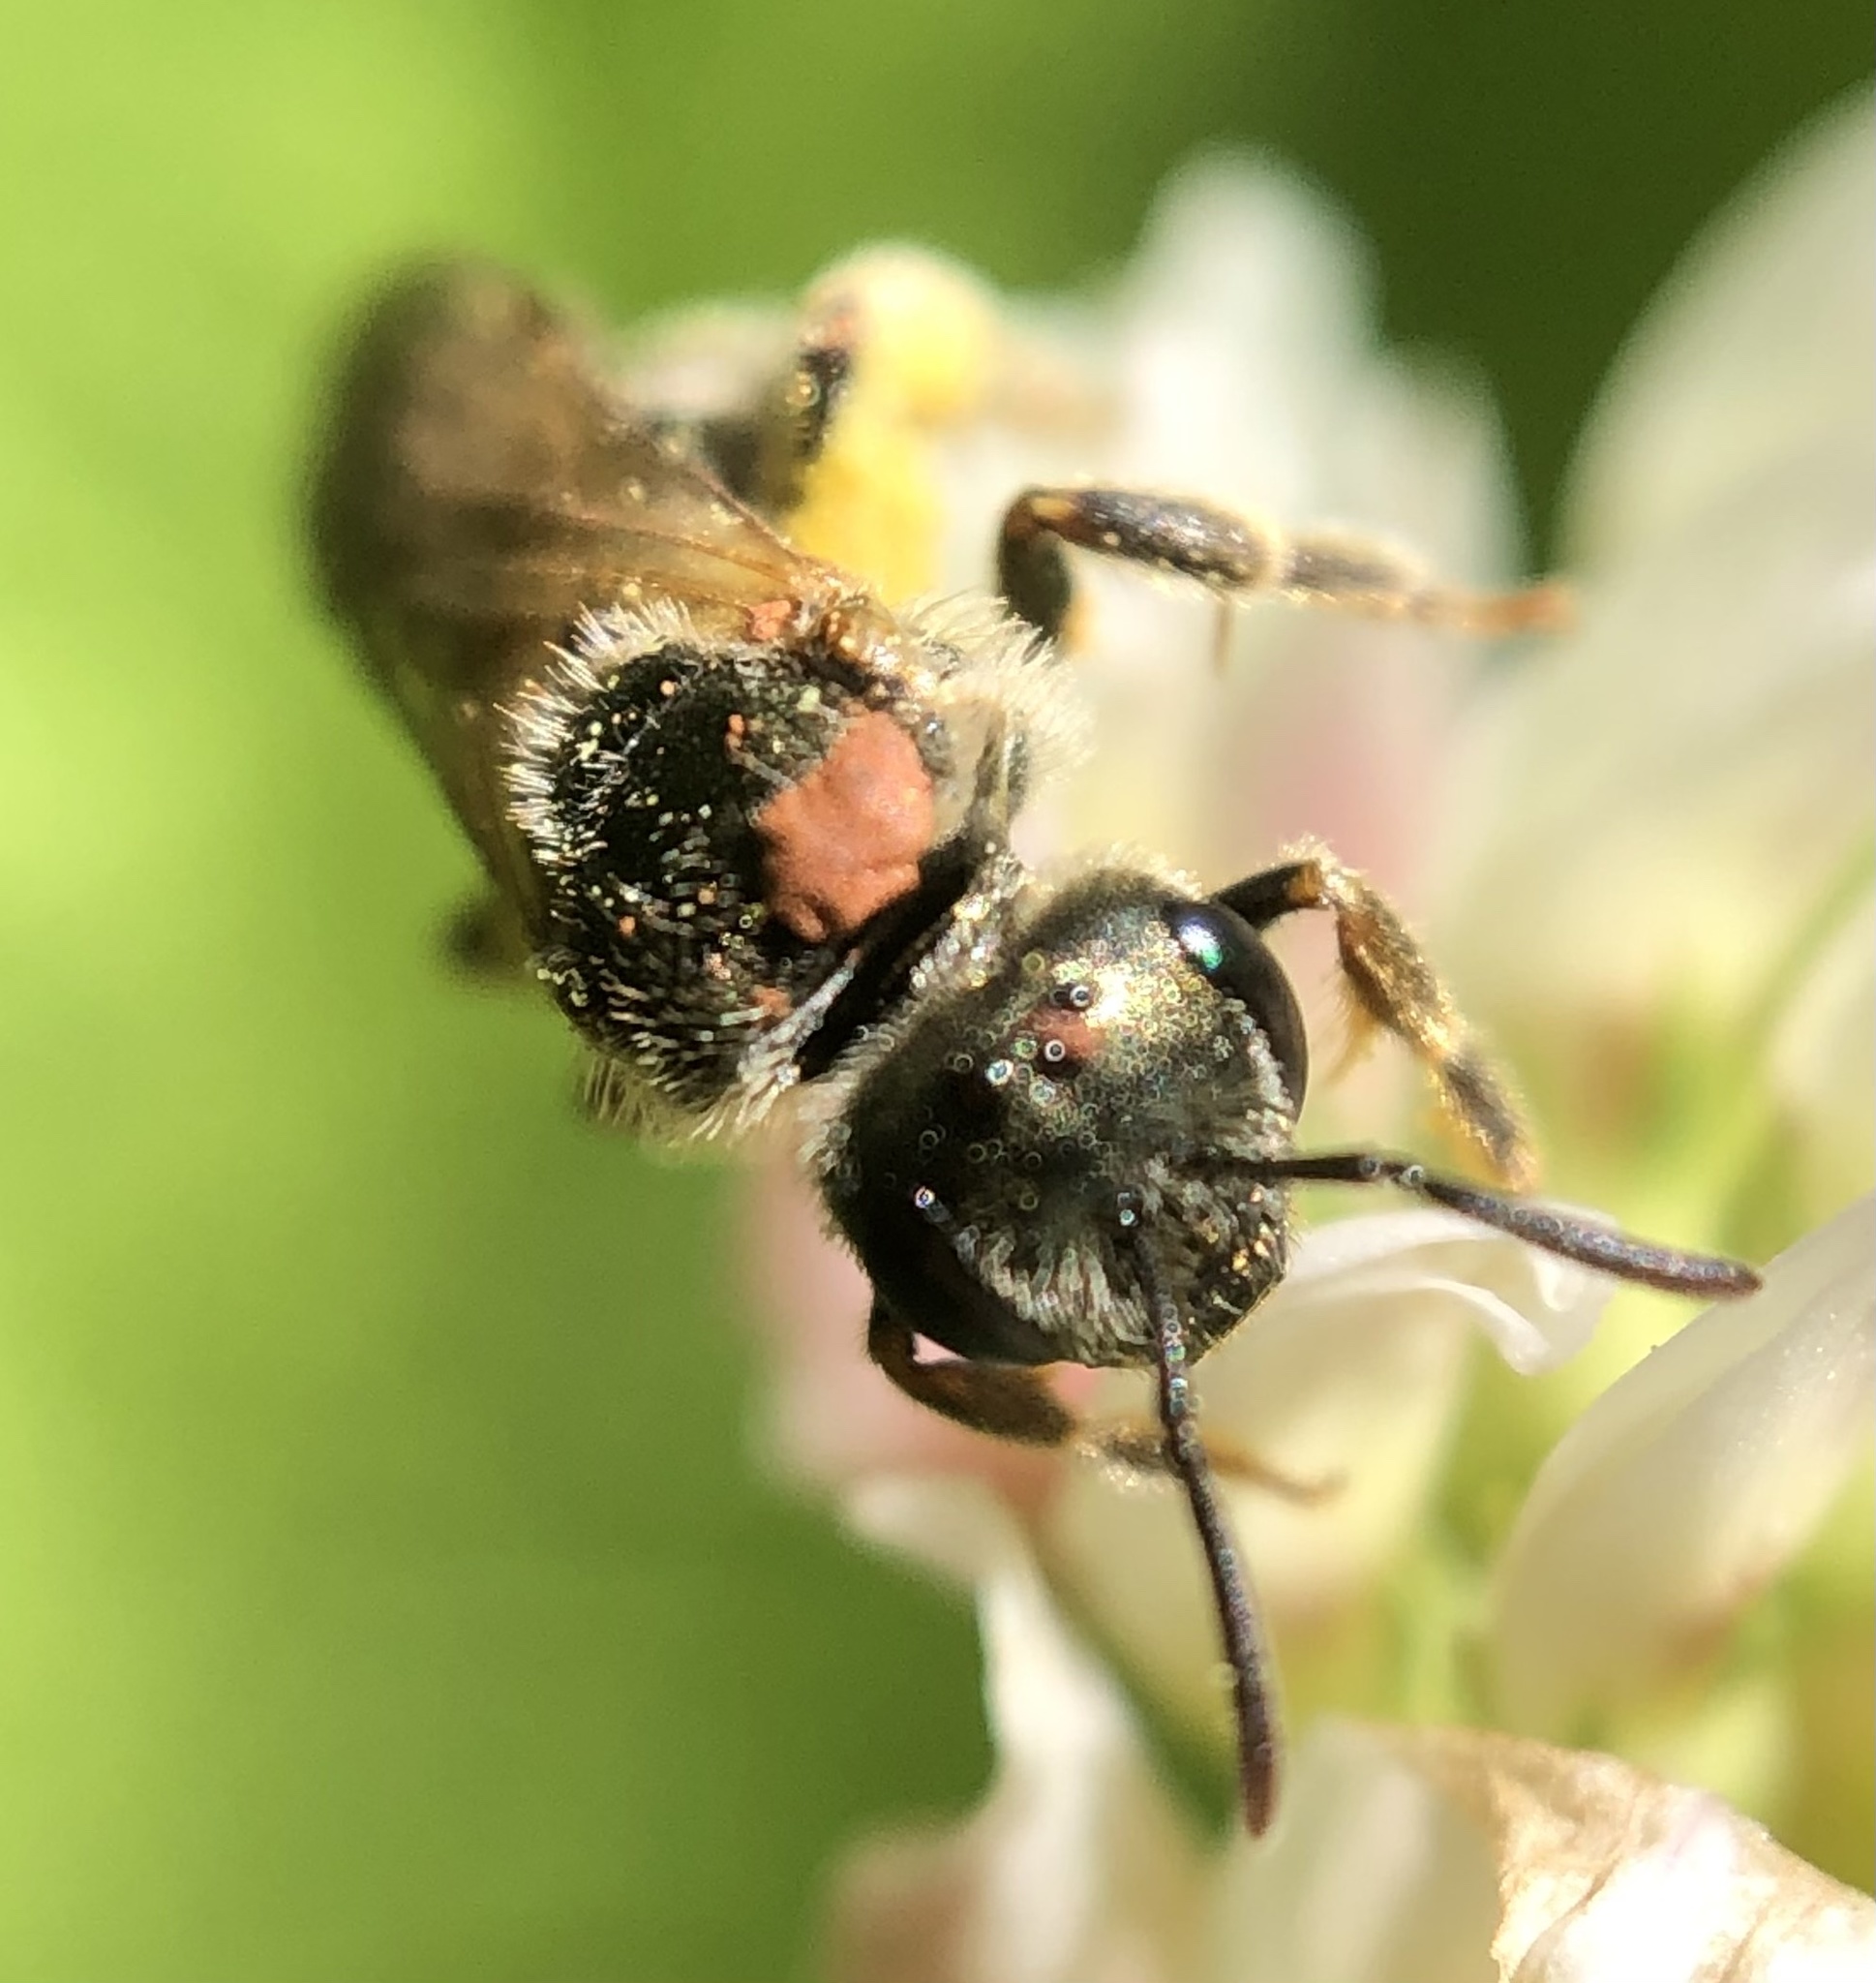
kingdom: Animalia
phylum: Arthropoda
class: Insecta
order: Hymenoptera
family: Halictidae
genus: Halictus
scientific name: Halictus confusus
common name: Southern bronze furrow bee
